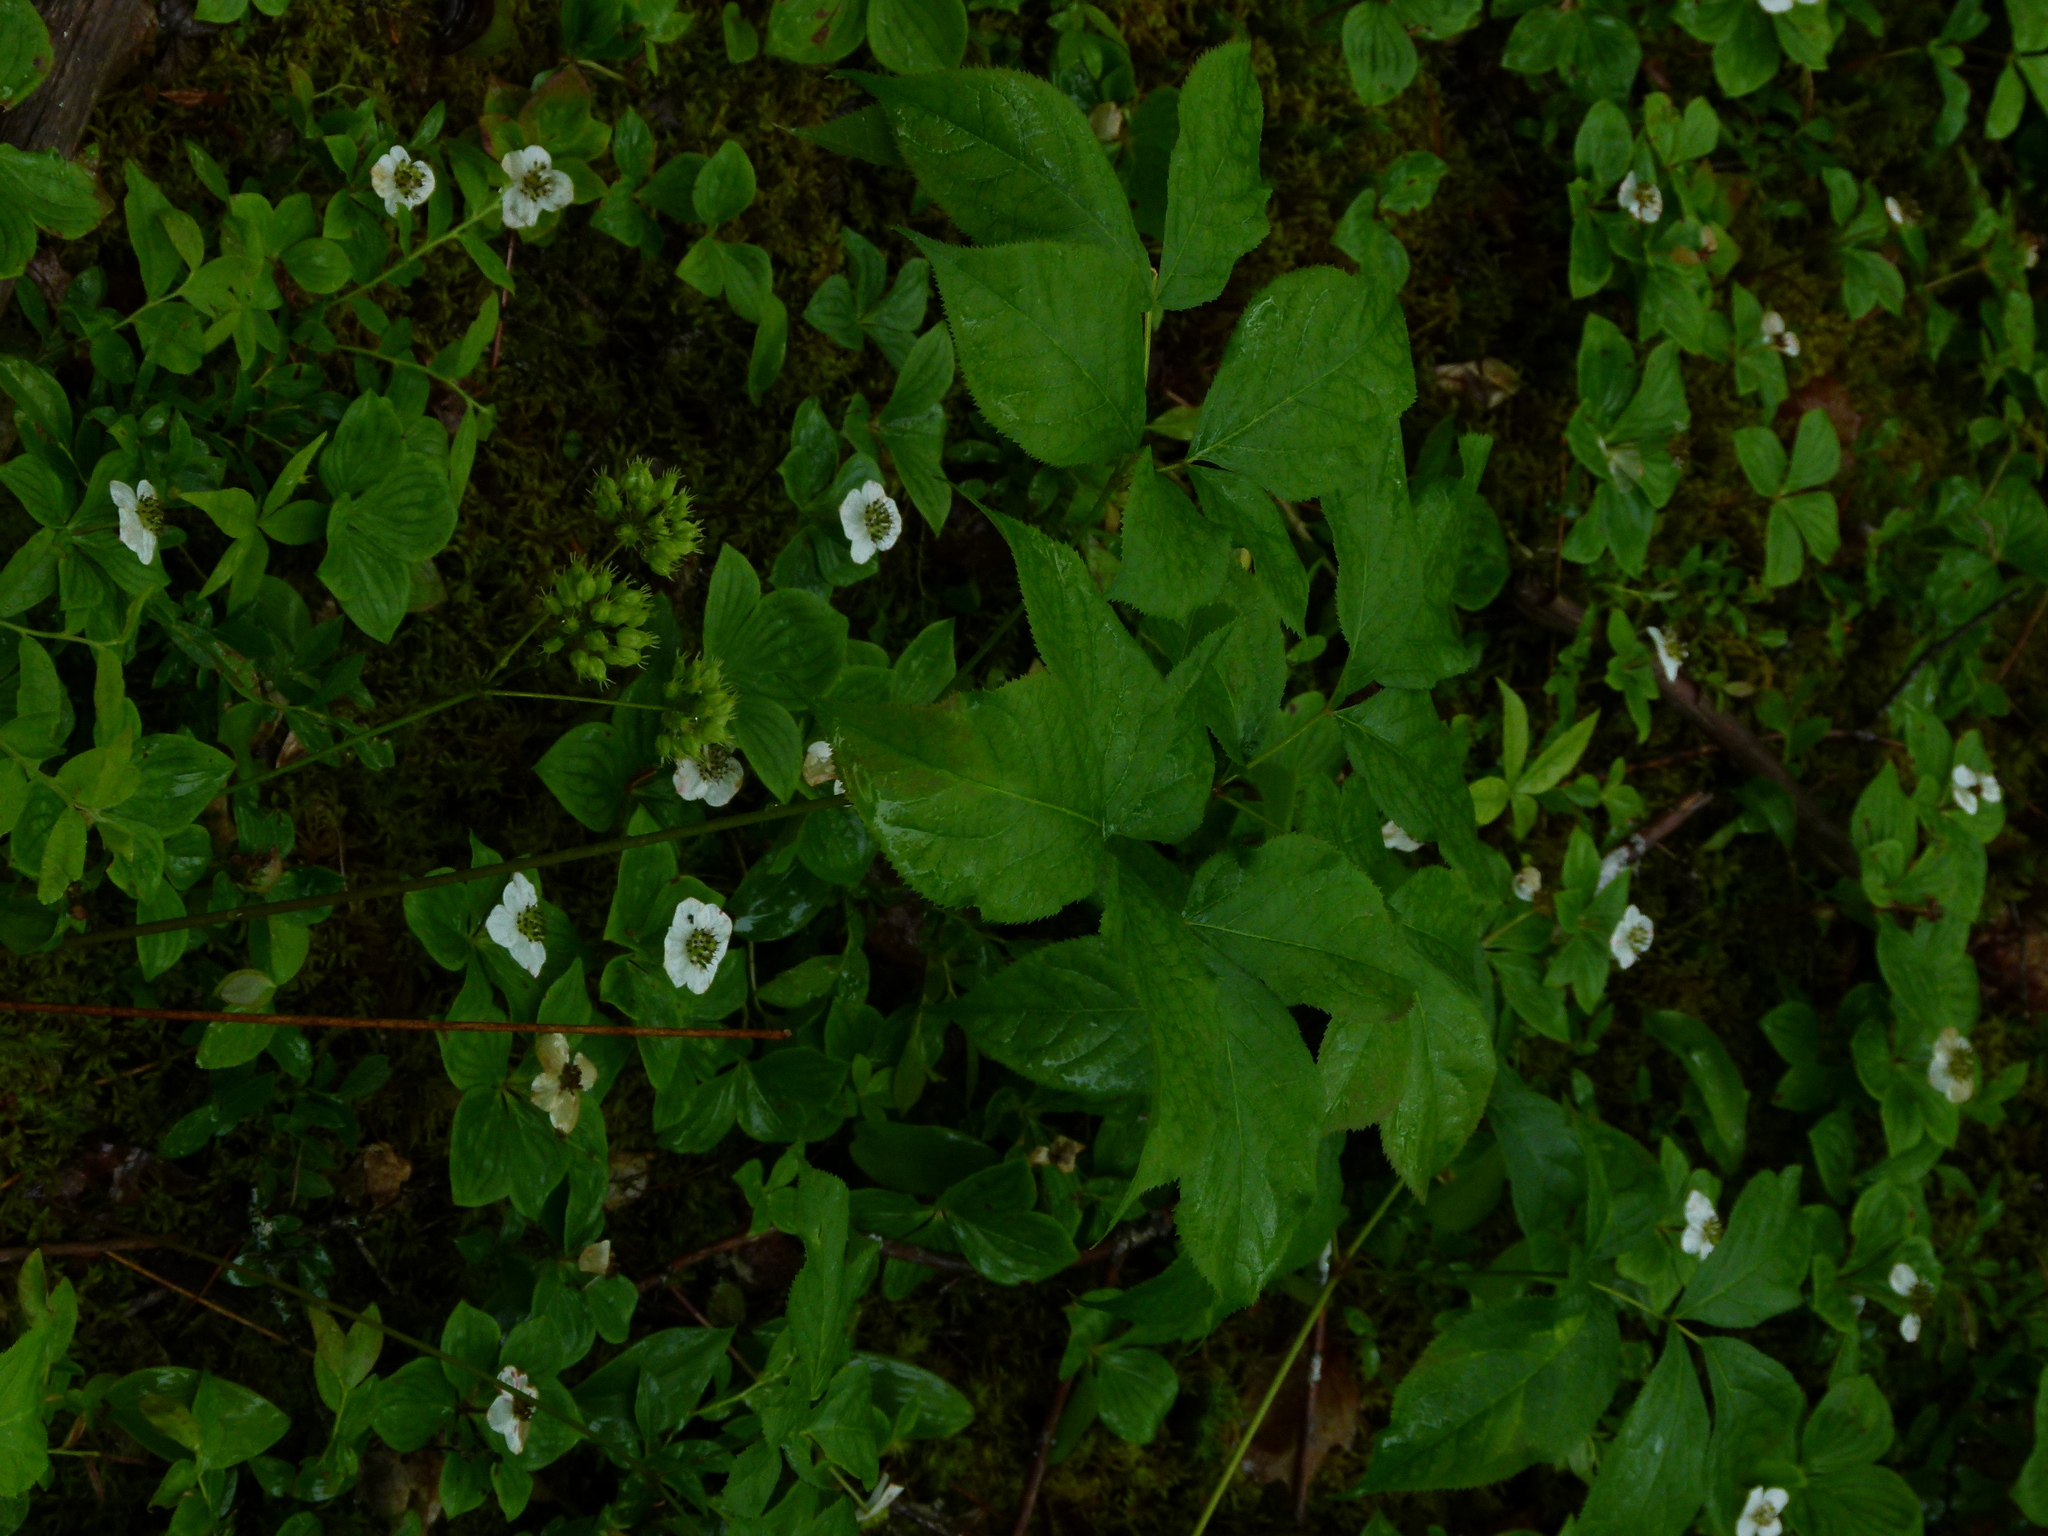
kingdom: Plantae
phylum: Tracheophyta
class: Magnoliopsida
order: Apiales
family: Araliaceae
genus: Aralia
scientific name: Aralia nudicaulis
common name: Wild sarsaparilla
